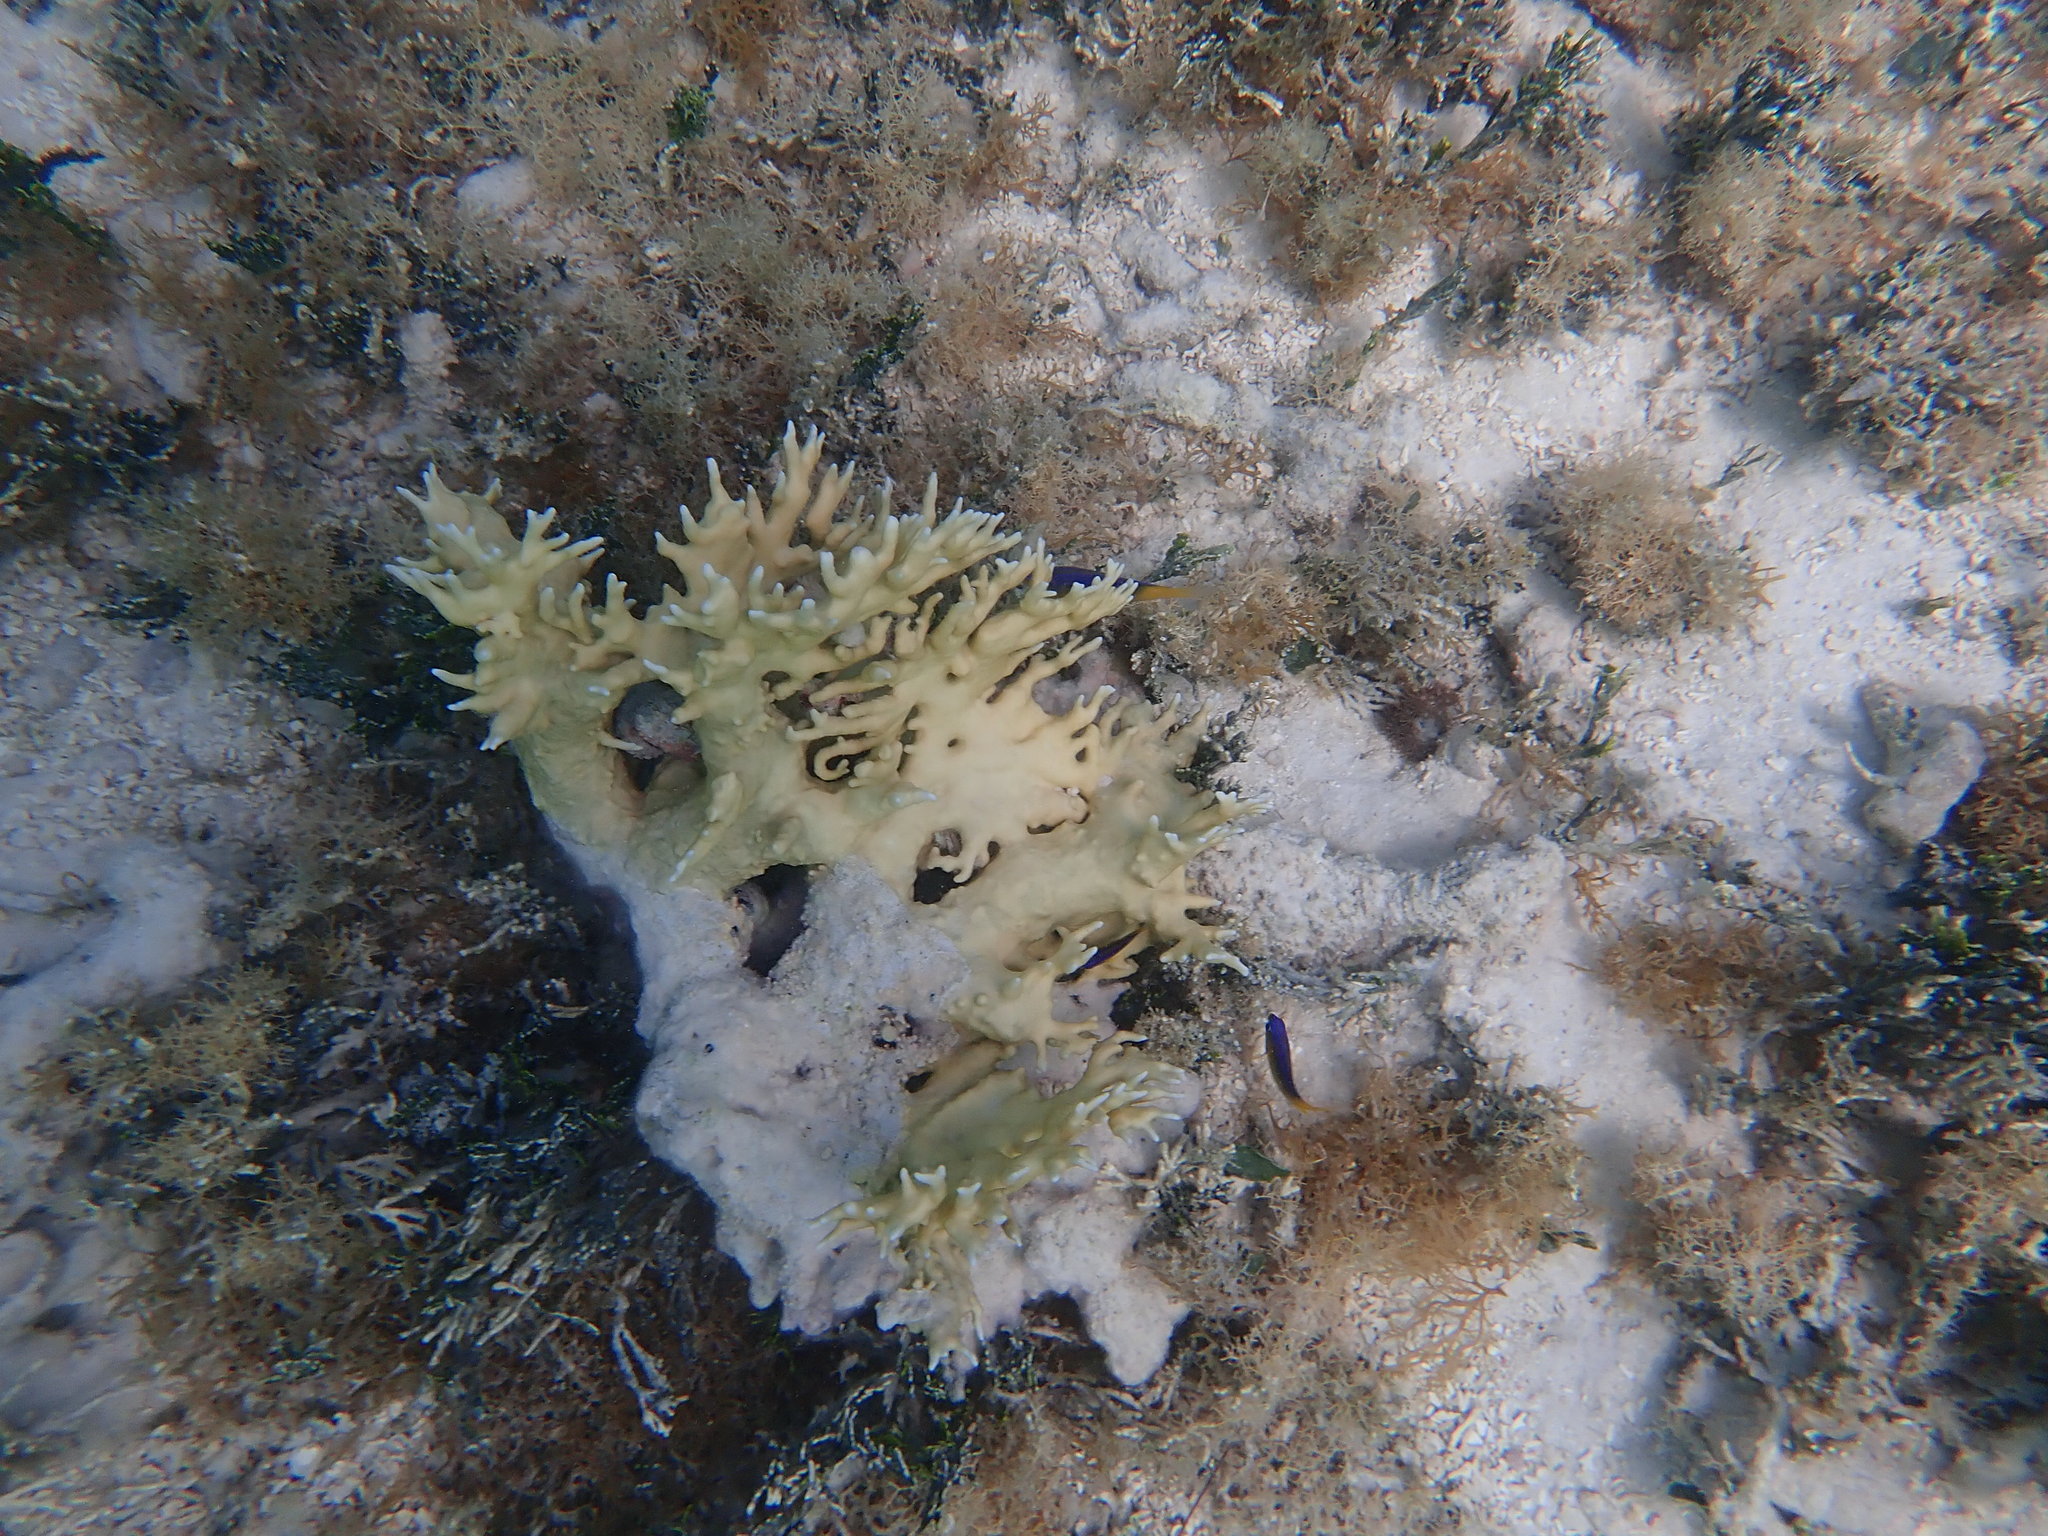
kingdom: Animalia
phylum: Cnidaria
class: Hydrozoa
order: Anthoathecata
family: Milleporidae
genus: Millepora
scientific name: Millepora alcicornis
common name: Branching fire coral
